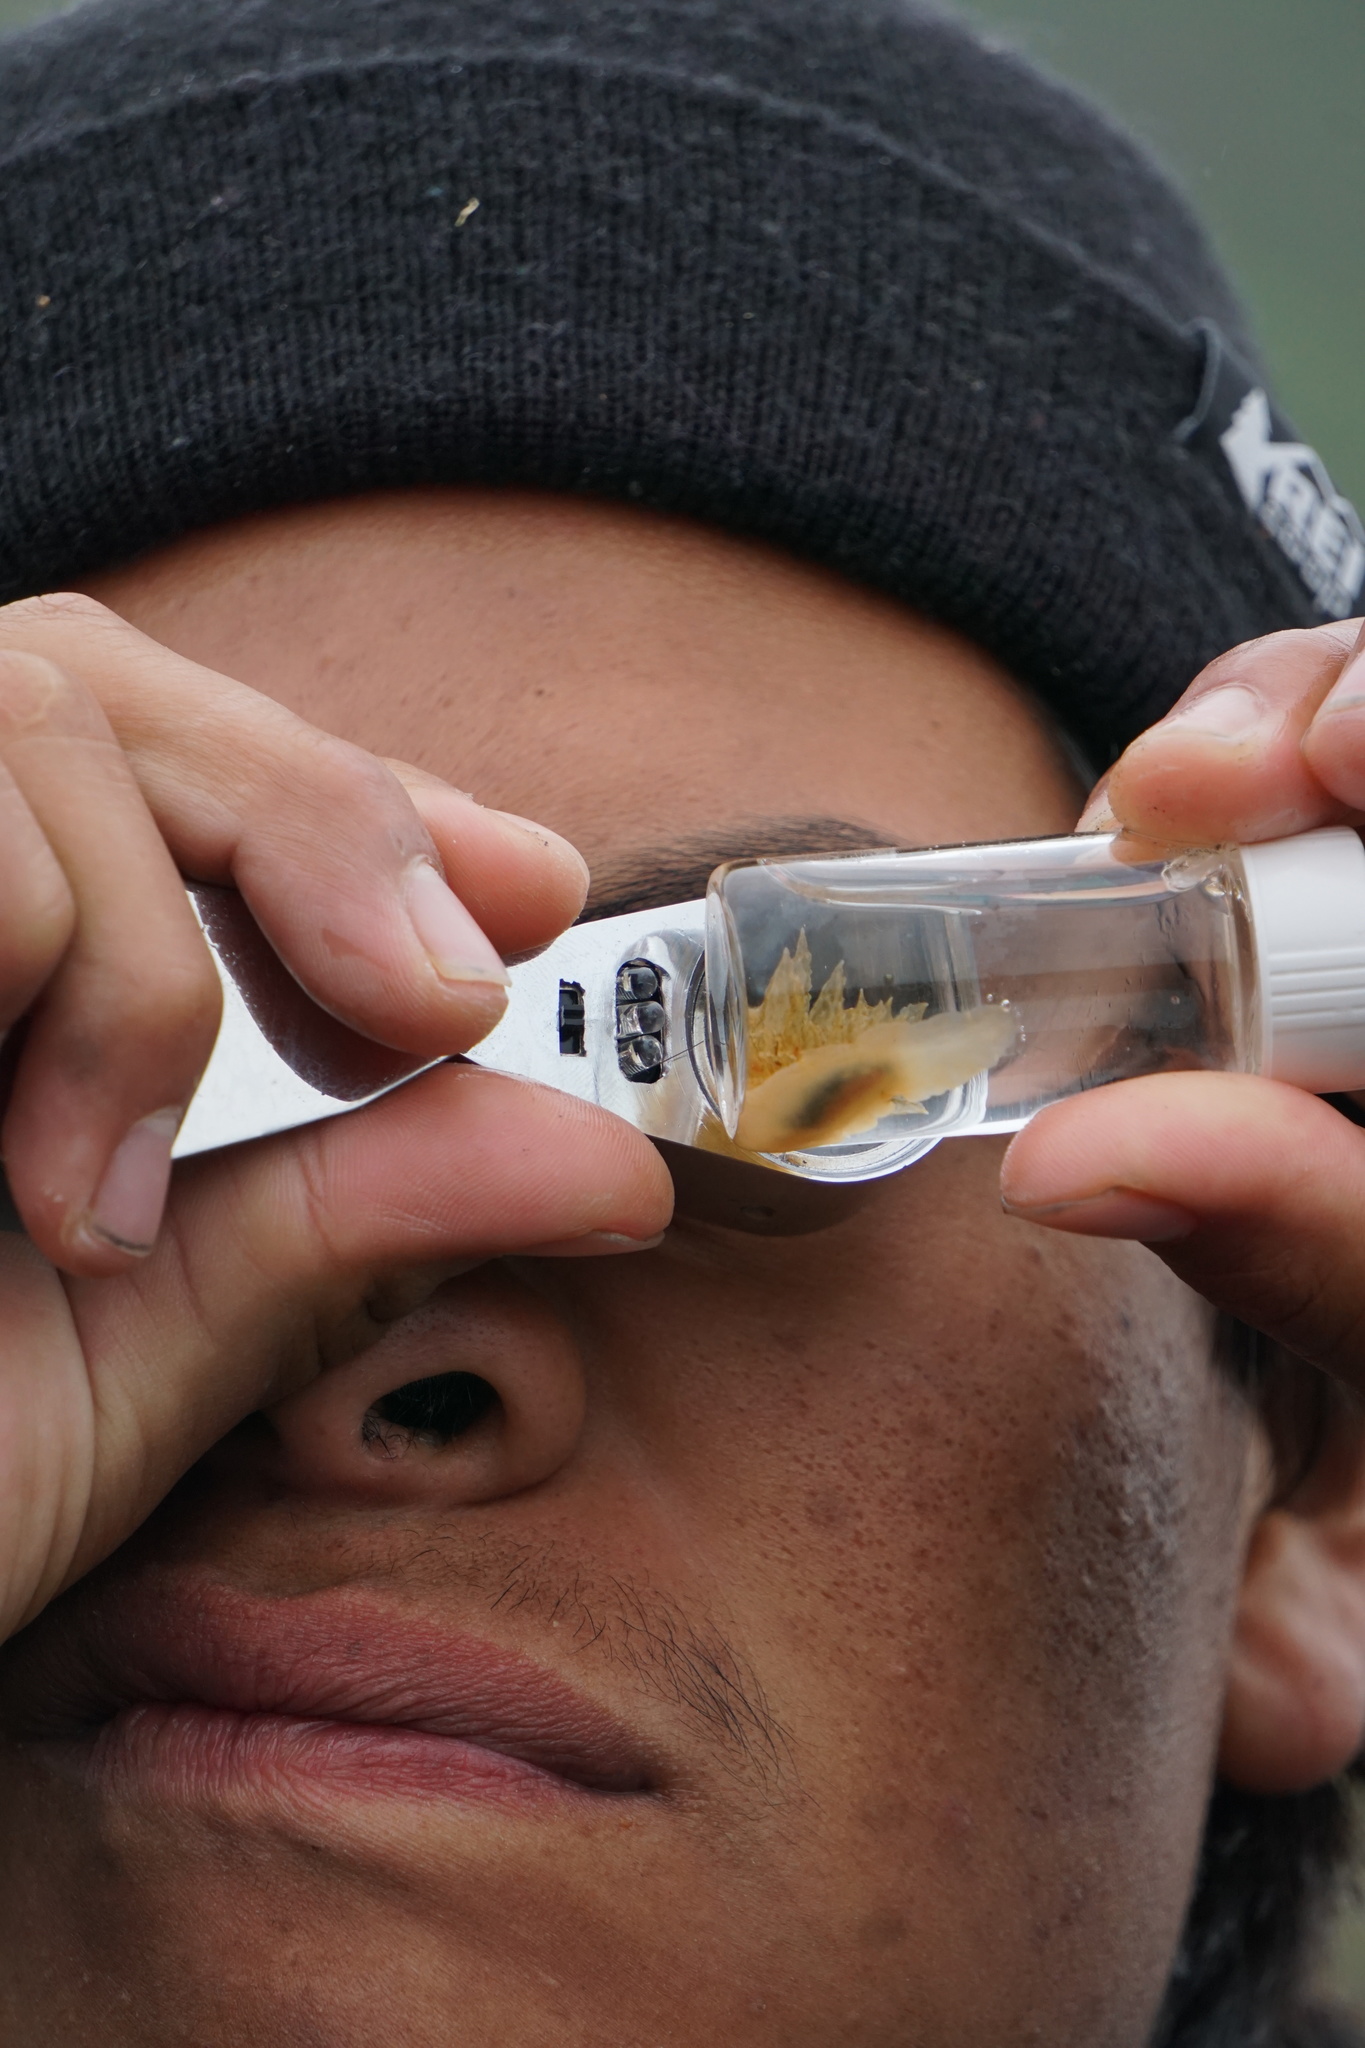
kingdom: Animalia
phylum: Mollusca
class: Gastropoda
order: Nudibranchia
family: Dironidae
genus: Dirona
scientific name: Dirona picta
